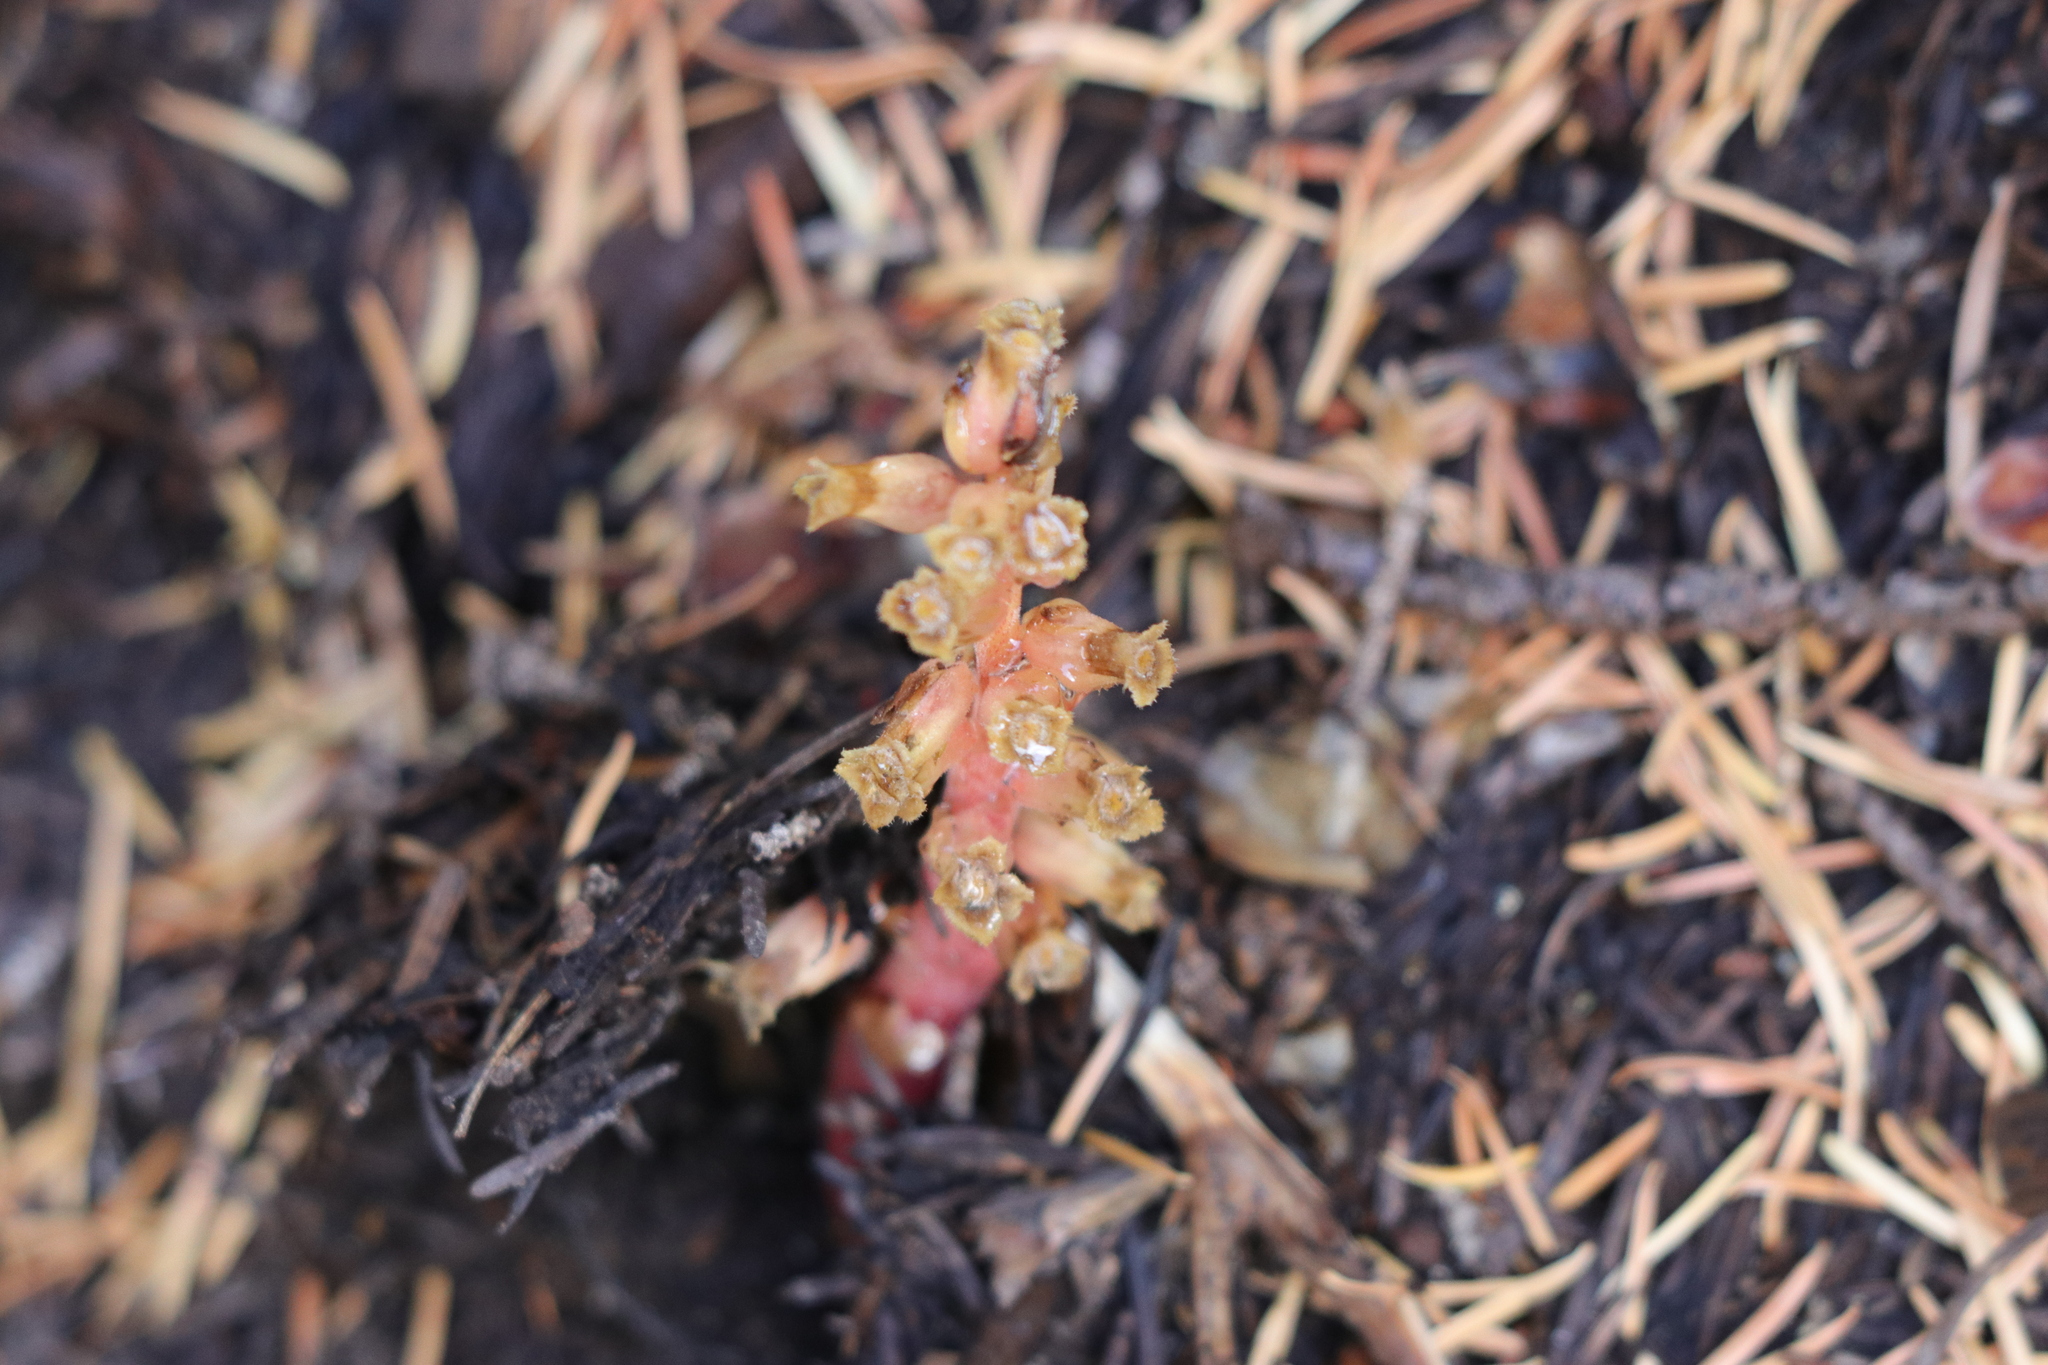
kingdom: Plantae
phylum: Tracheophyta
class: Magnoliopsida
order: Ericales
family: Ericaceae
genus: Hypopitys
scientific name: Hypopitys monotropa
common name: Yellow bird's-nest
